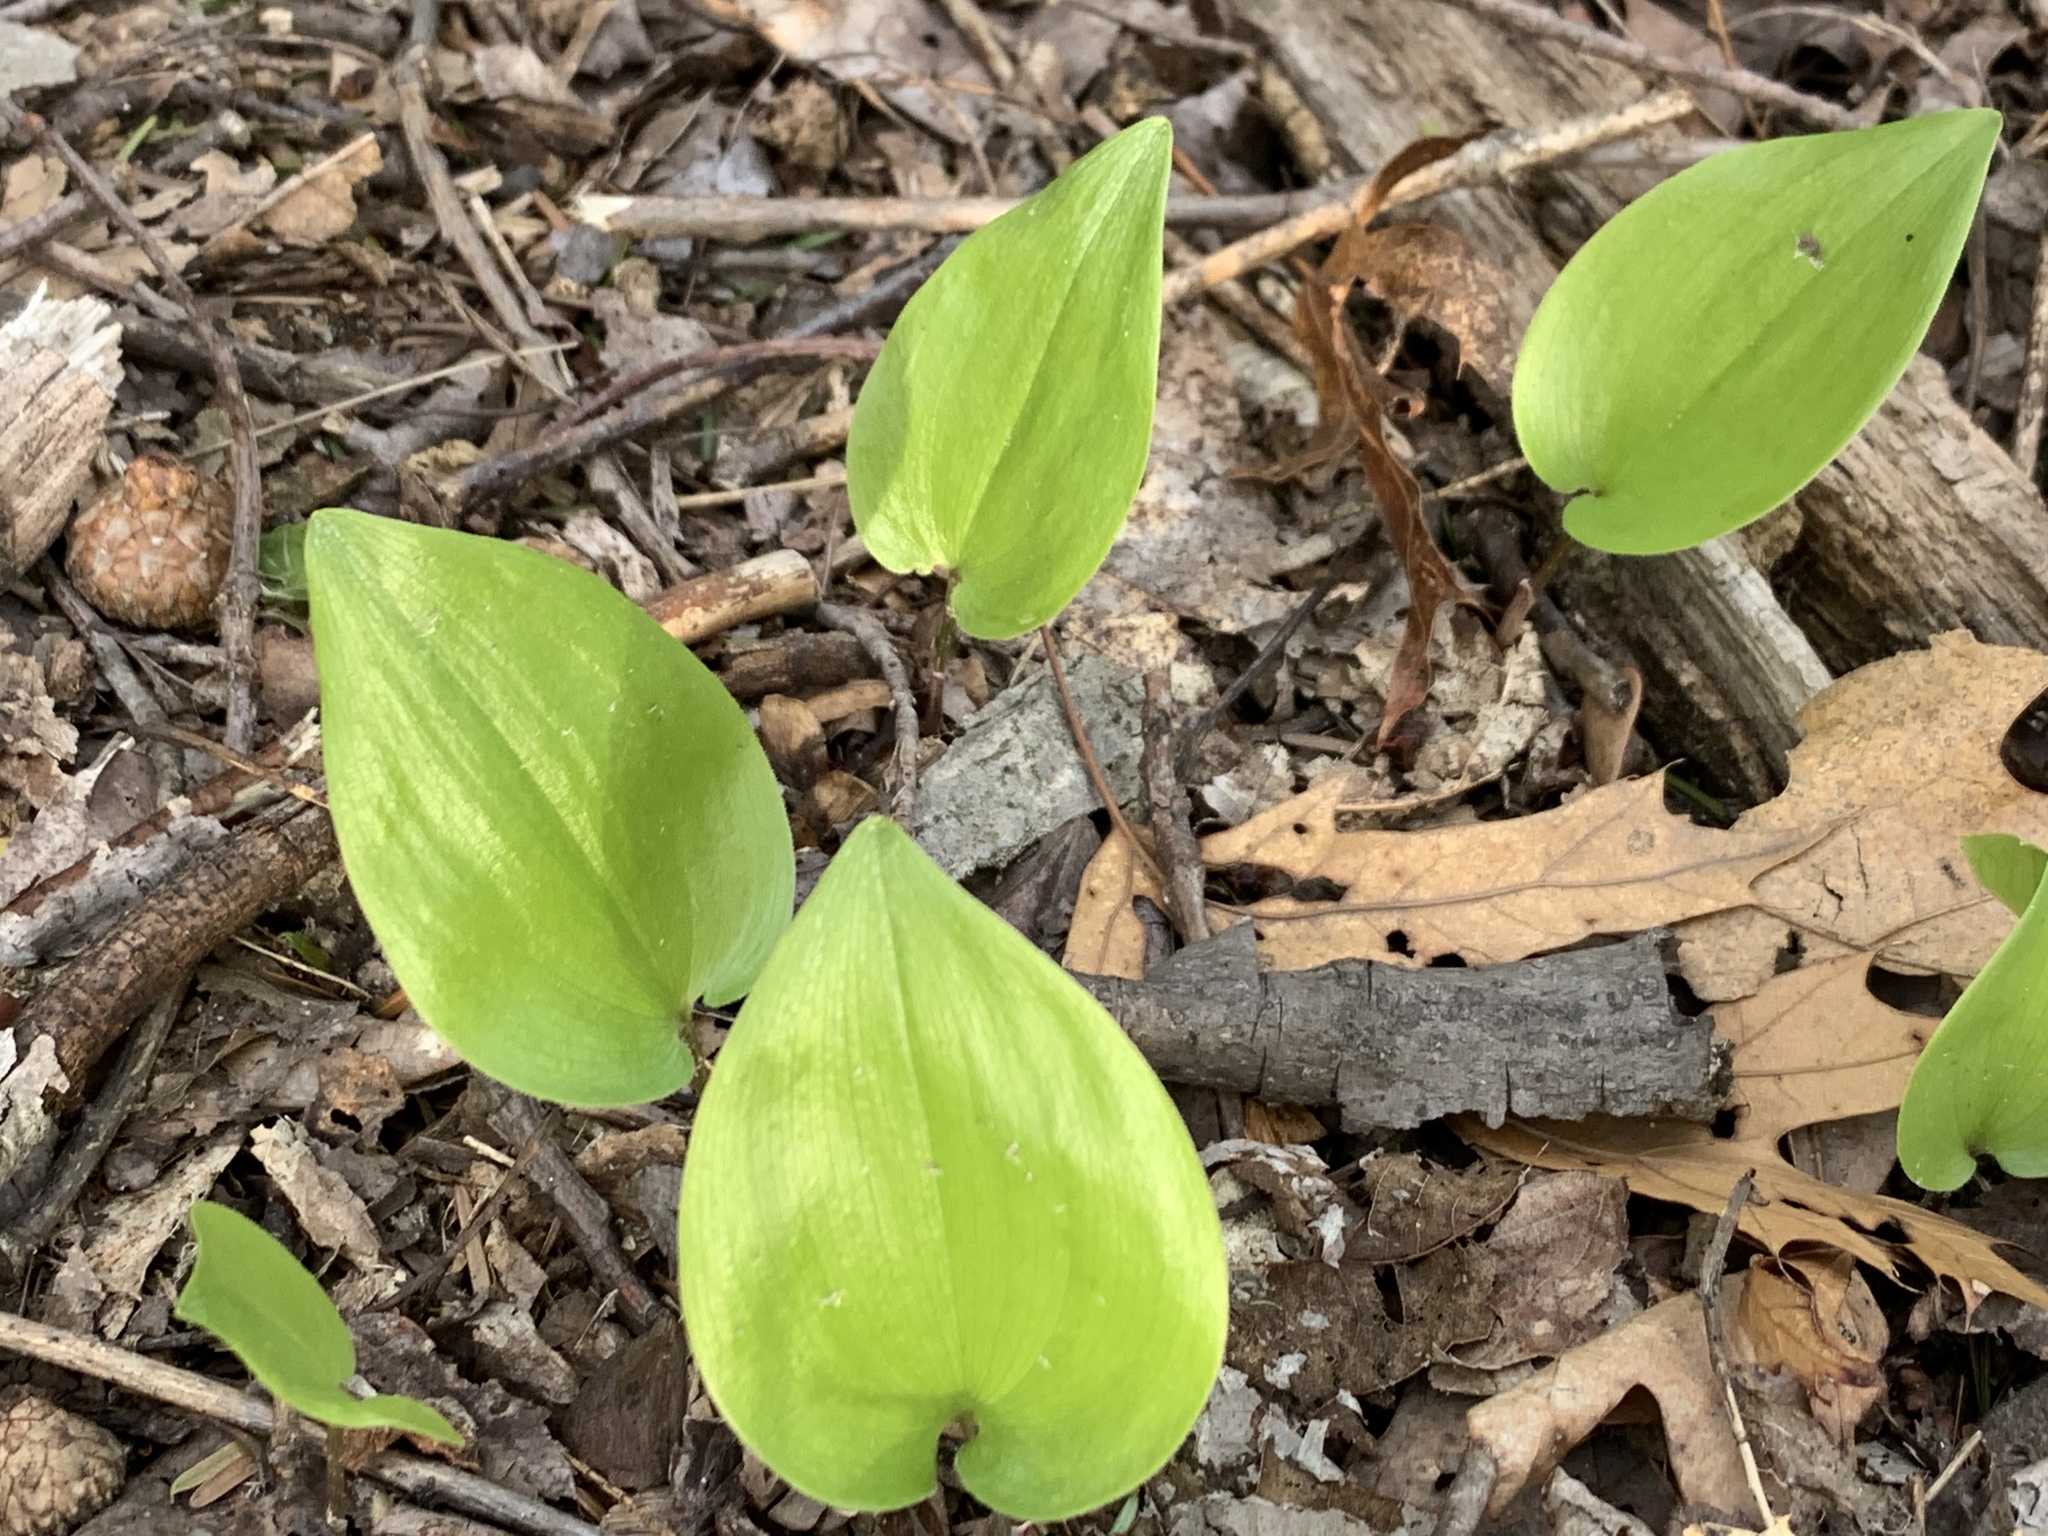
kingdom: Plantae
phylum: Tracheophyta
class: Liliopsida
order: Asparagales
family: Asparagaceae
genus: Maianthemum
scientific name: Maianthemum canadense
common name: False lily-of-the-valley
